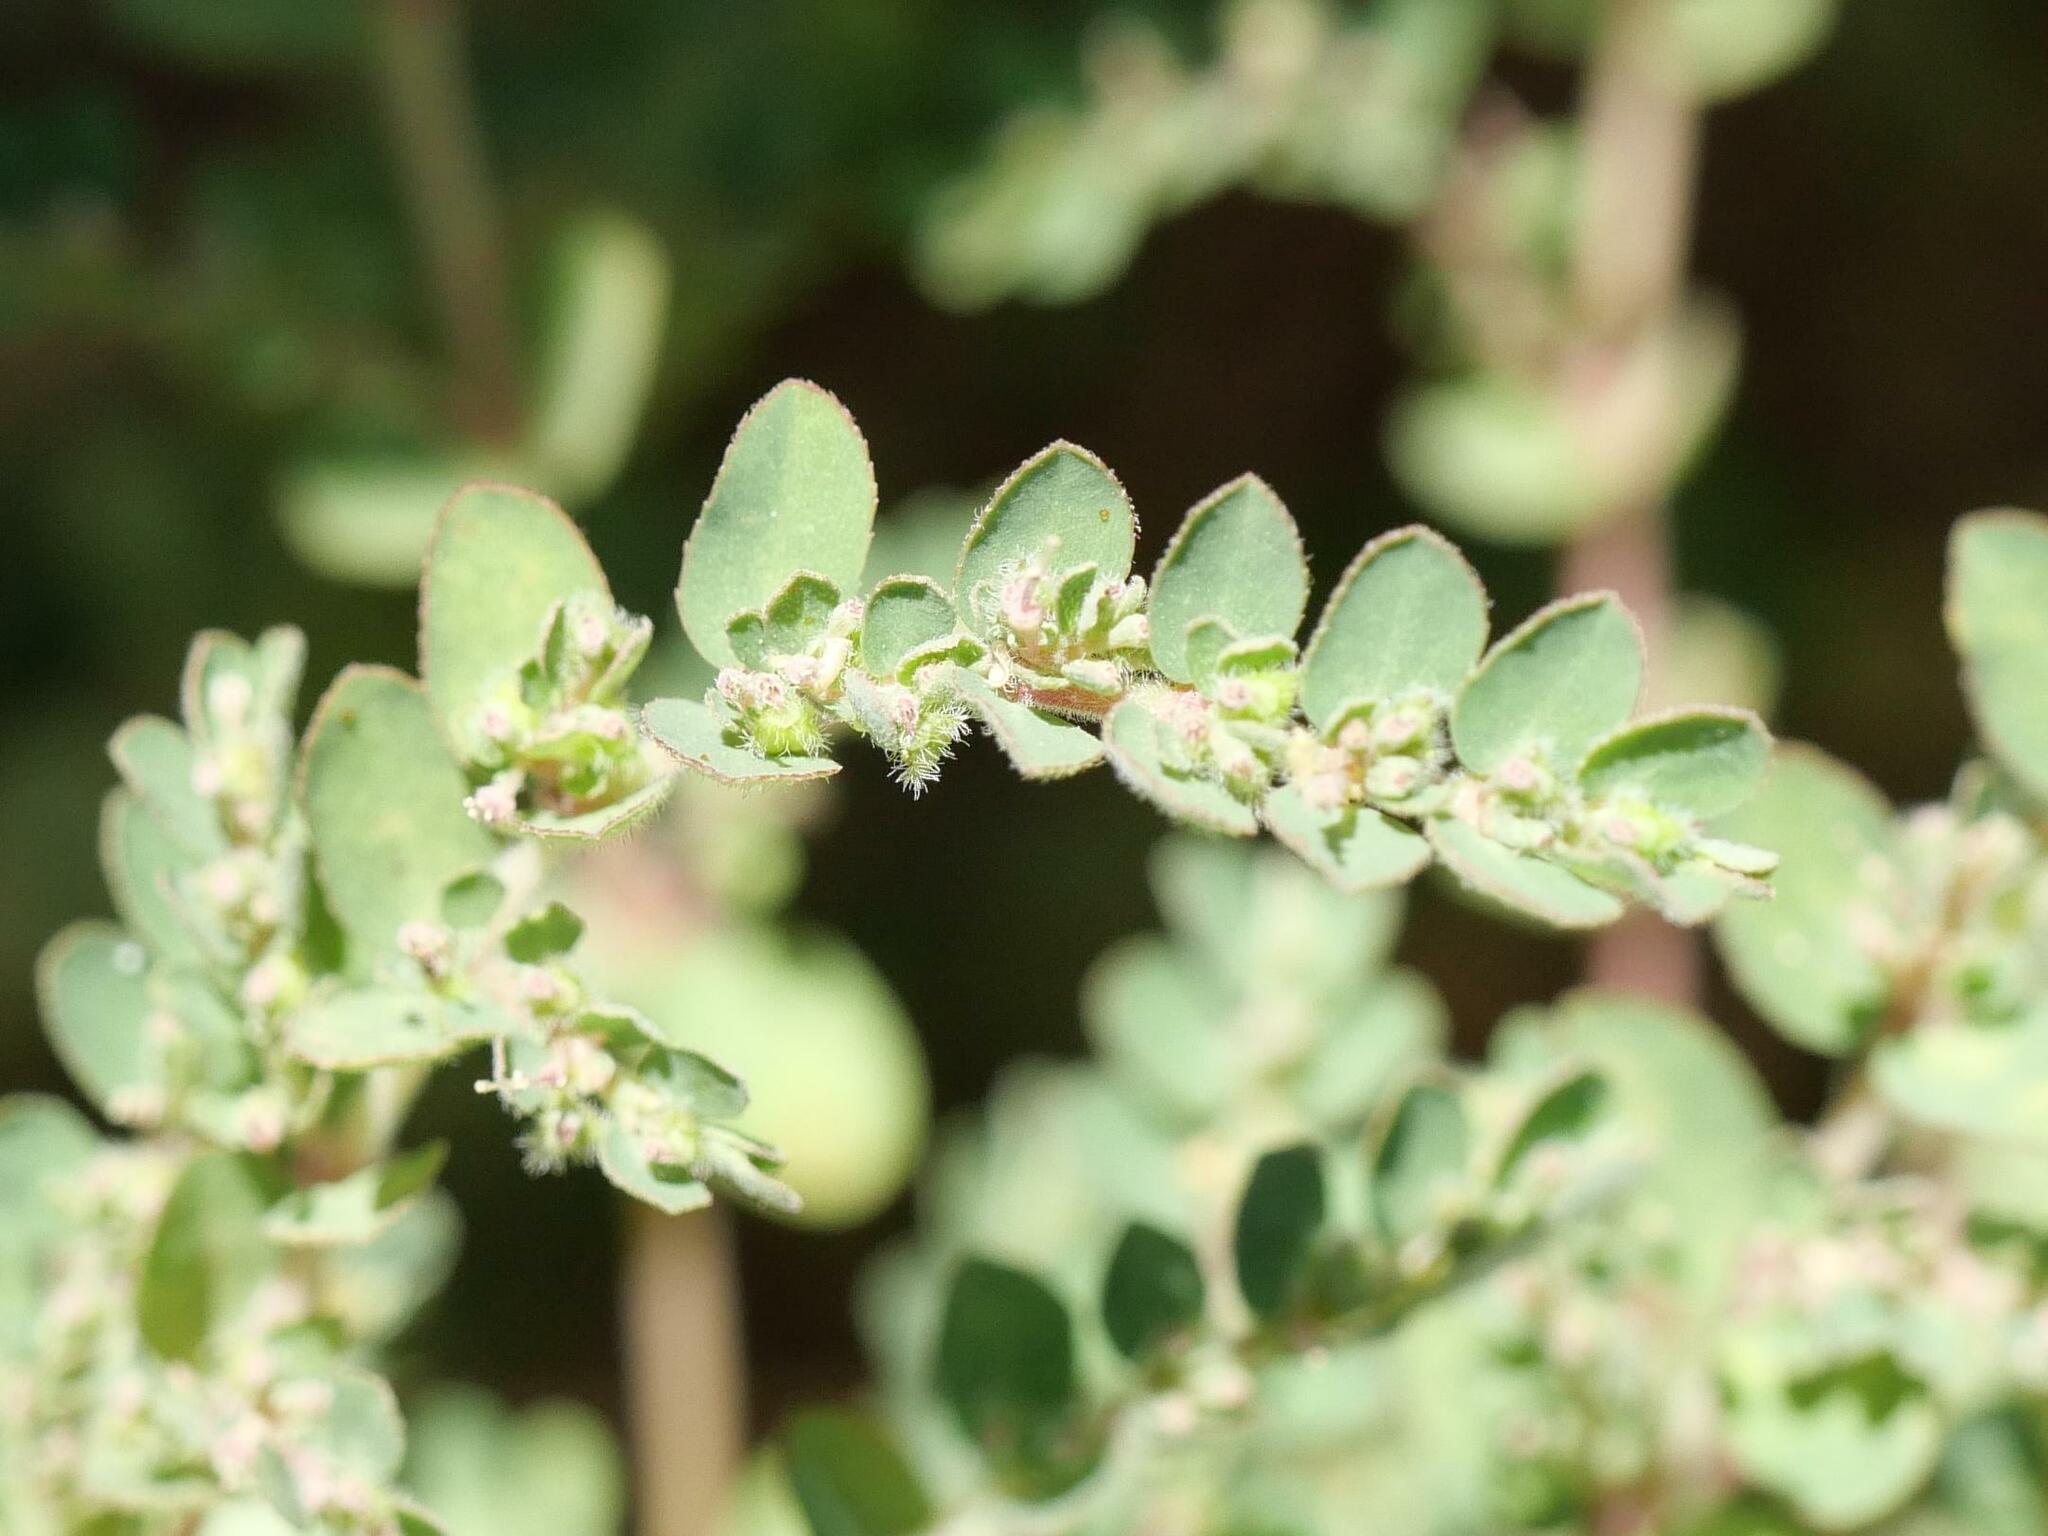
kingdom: Plantae
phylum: Tracheophyta
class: Magnoliopsida
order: Malpighiales
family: Euphorbiaceae
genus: Euphorbia
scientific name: Euphorbia prostrata
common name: Prostrate sandmat
